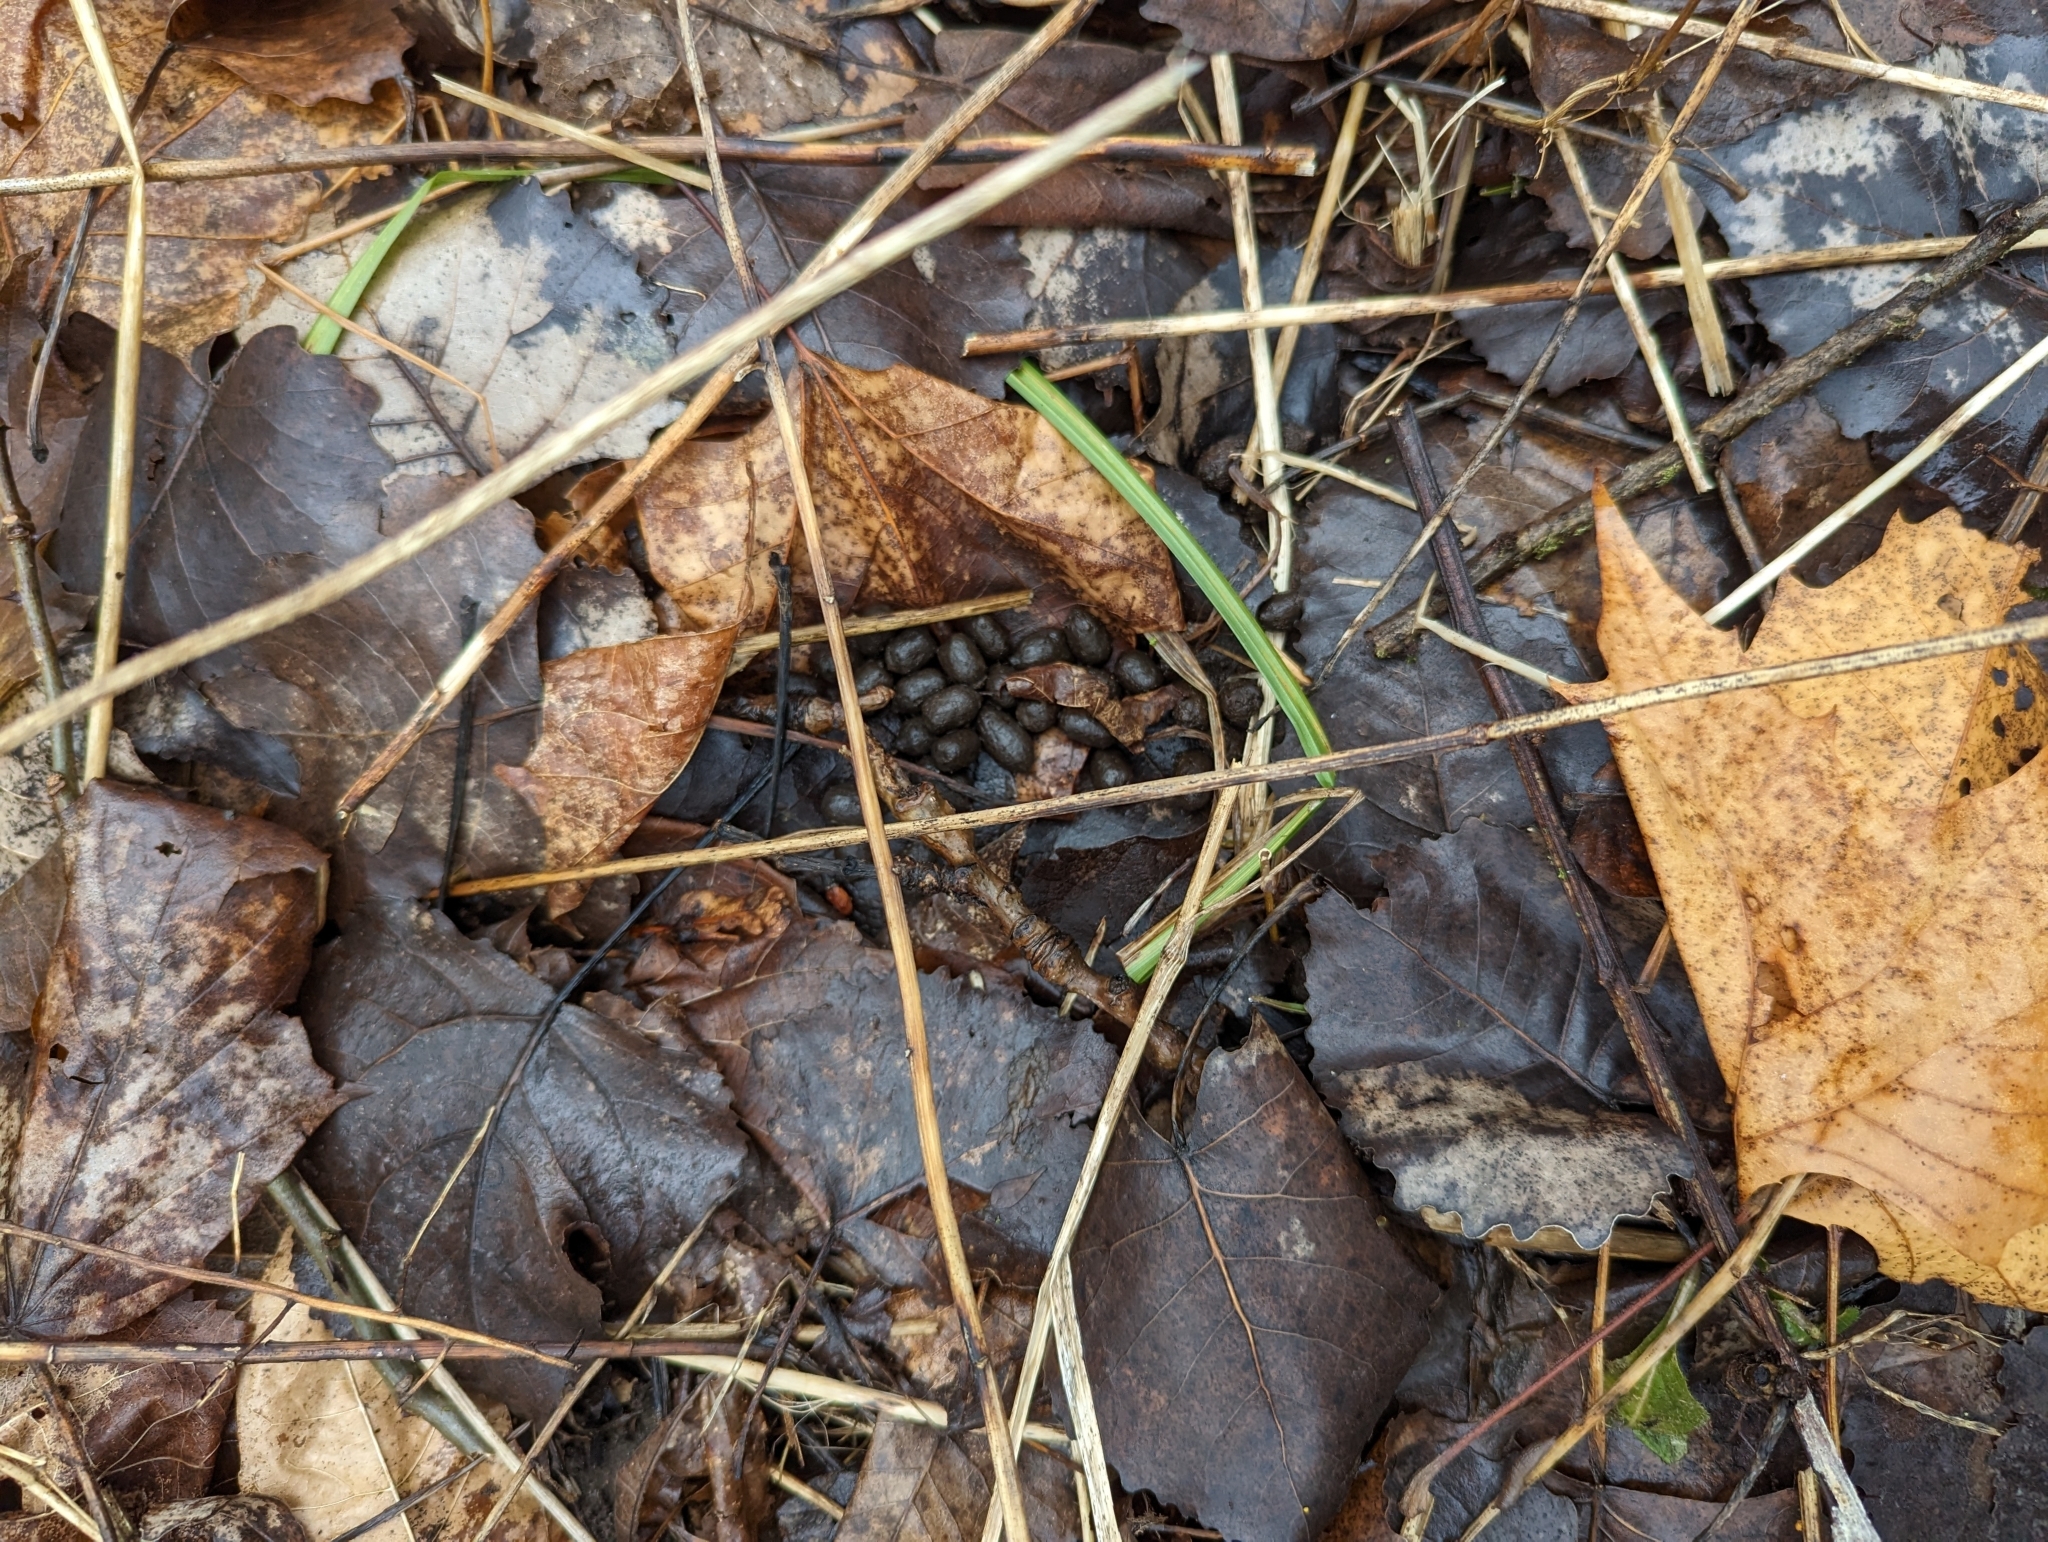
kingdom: Animalia
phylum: Chordata
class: Mammalia
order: Artiodactyla
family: Cervidae
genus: Odocoileus
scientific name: Odocoileus virginianus
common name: White-tailed deer
